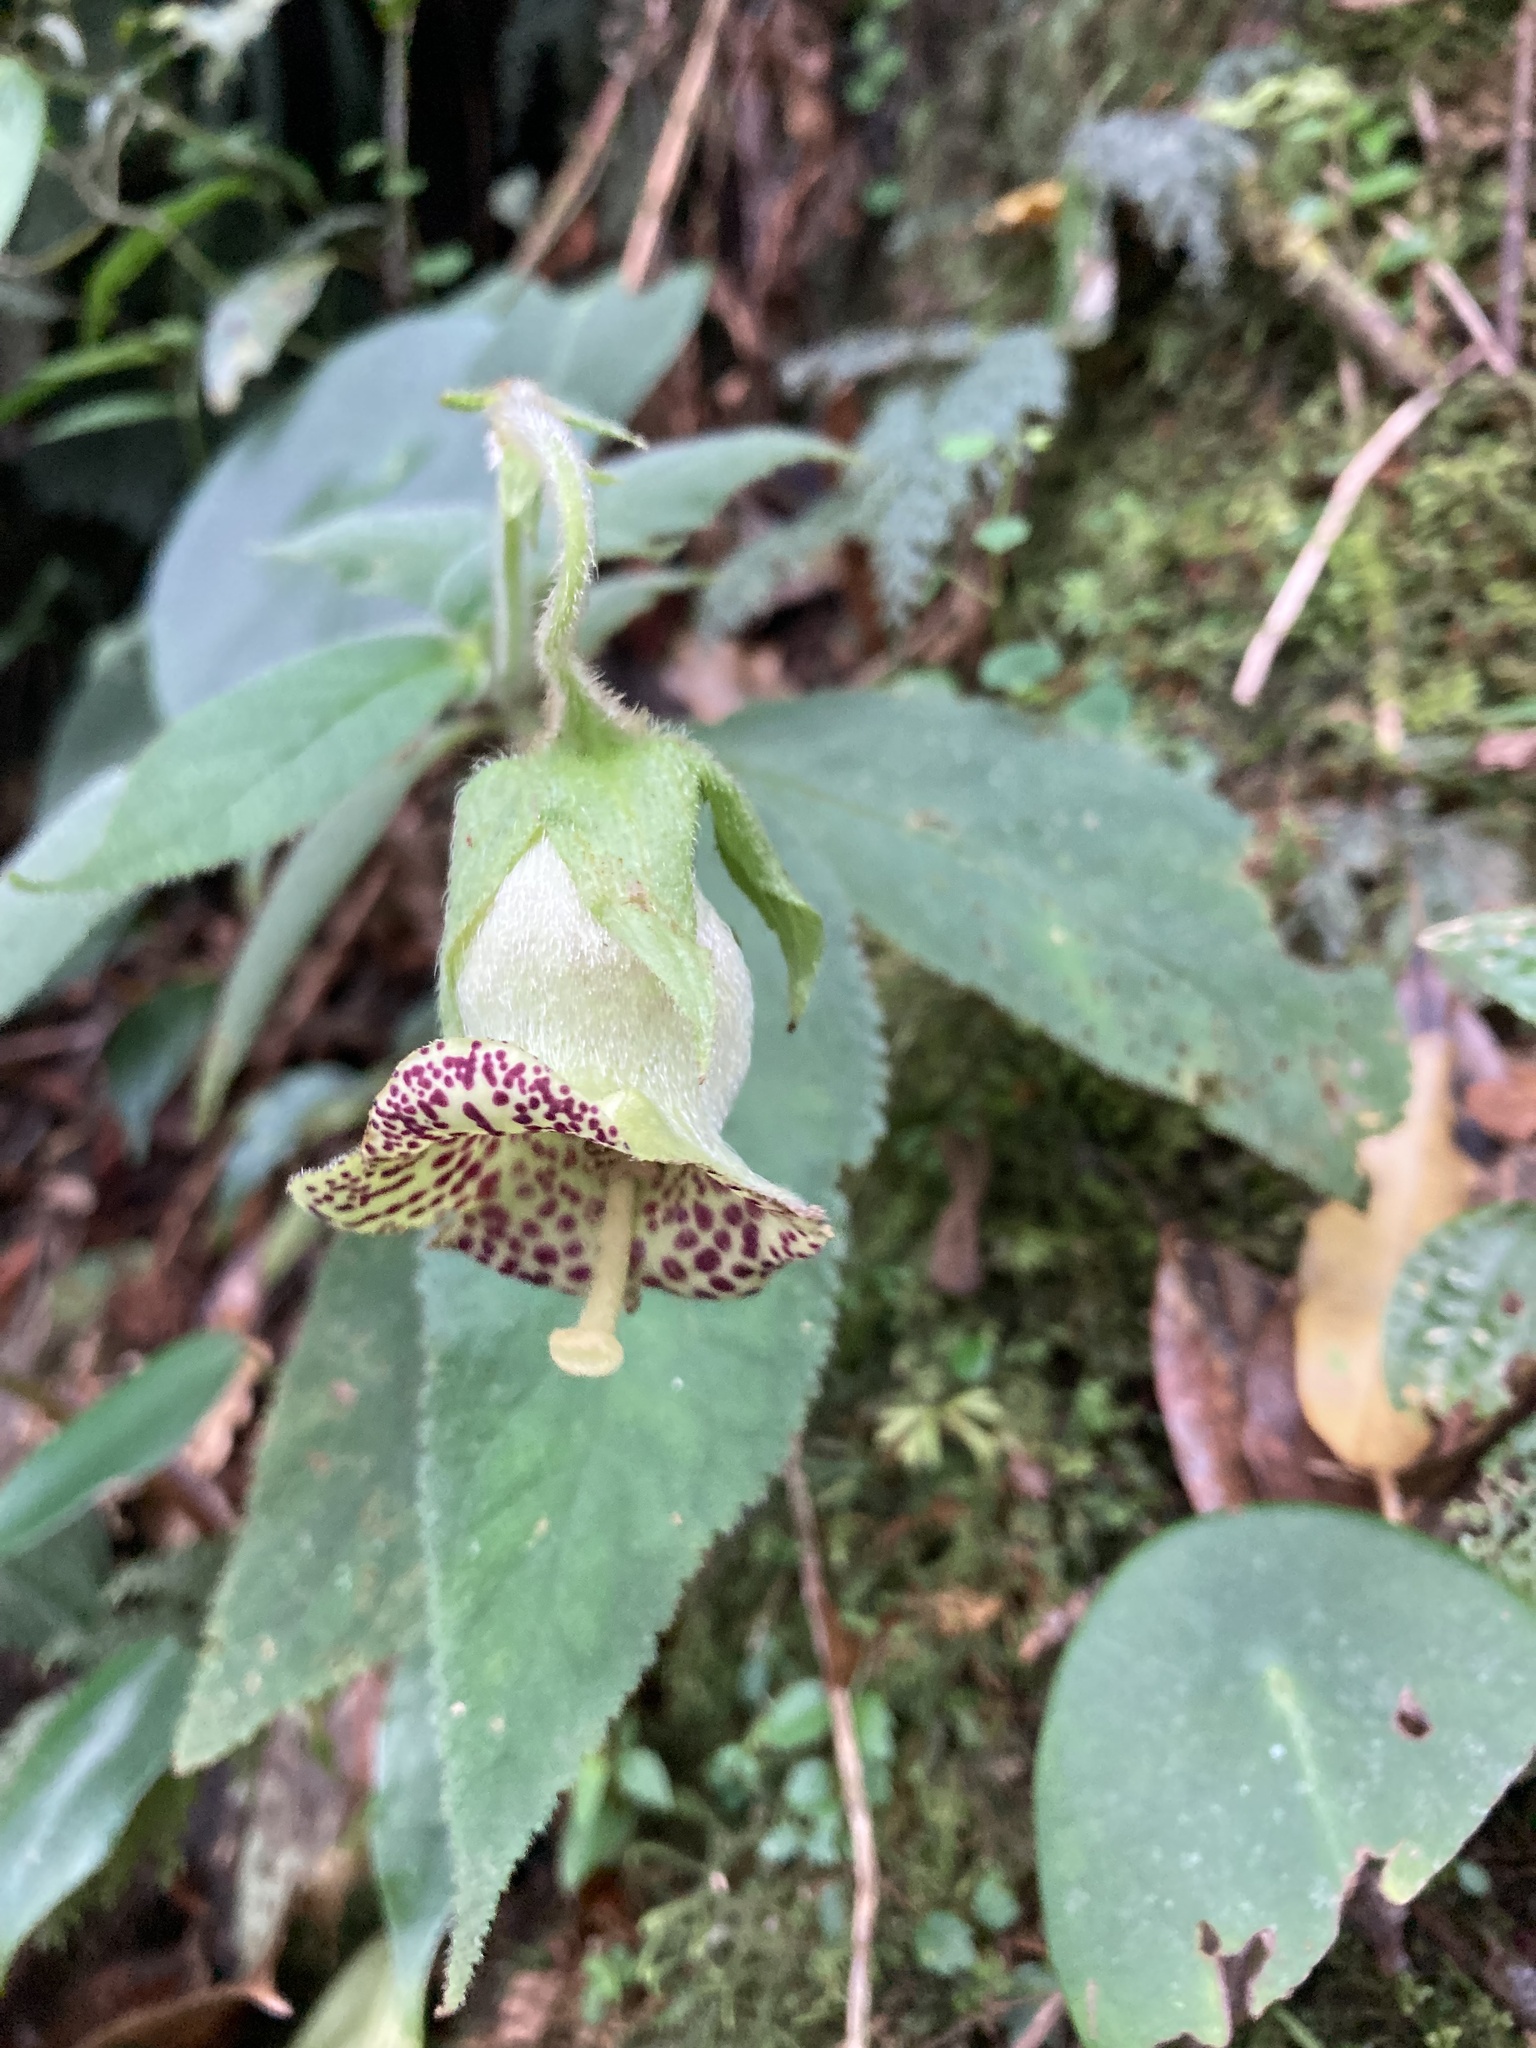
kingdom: Plantae
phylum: Tracheophyta
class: Magnoliopsida
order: Lamiales
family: Gesneriaceae
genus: Kohleria
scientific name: Kohleria tigridia
